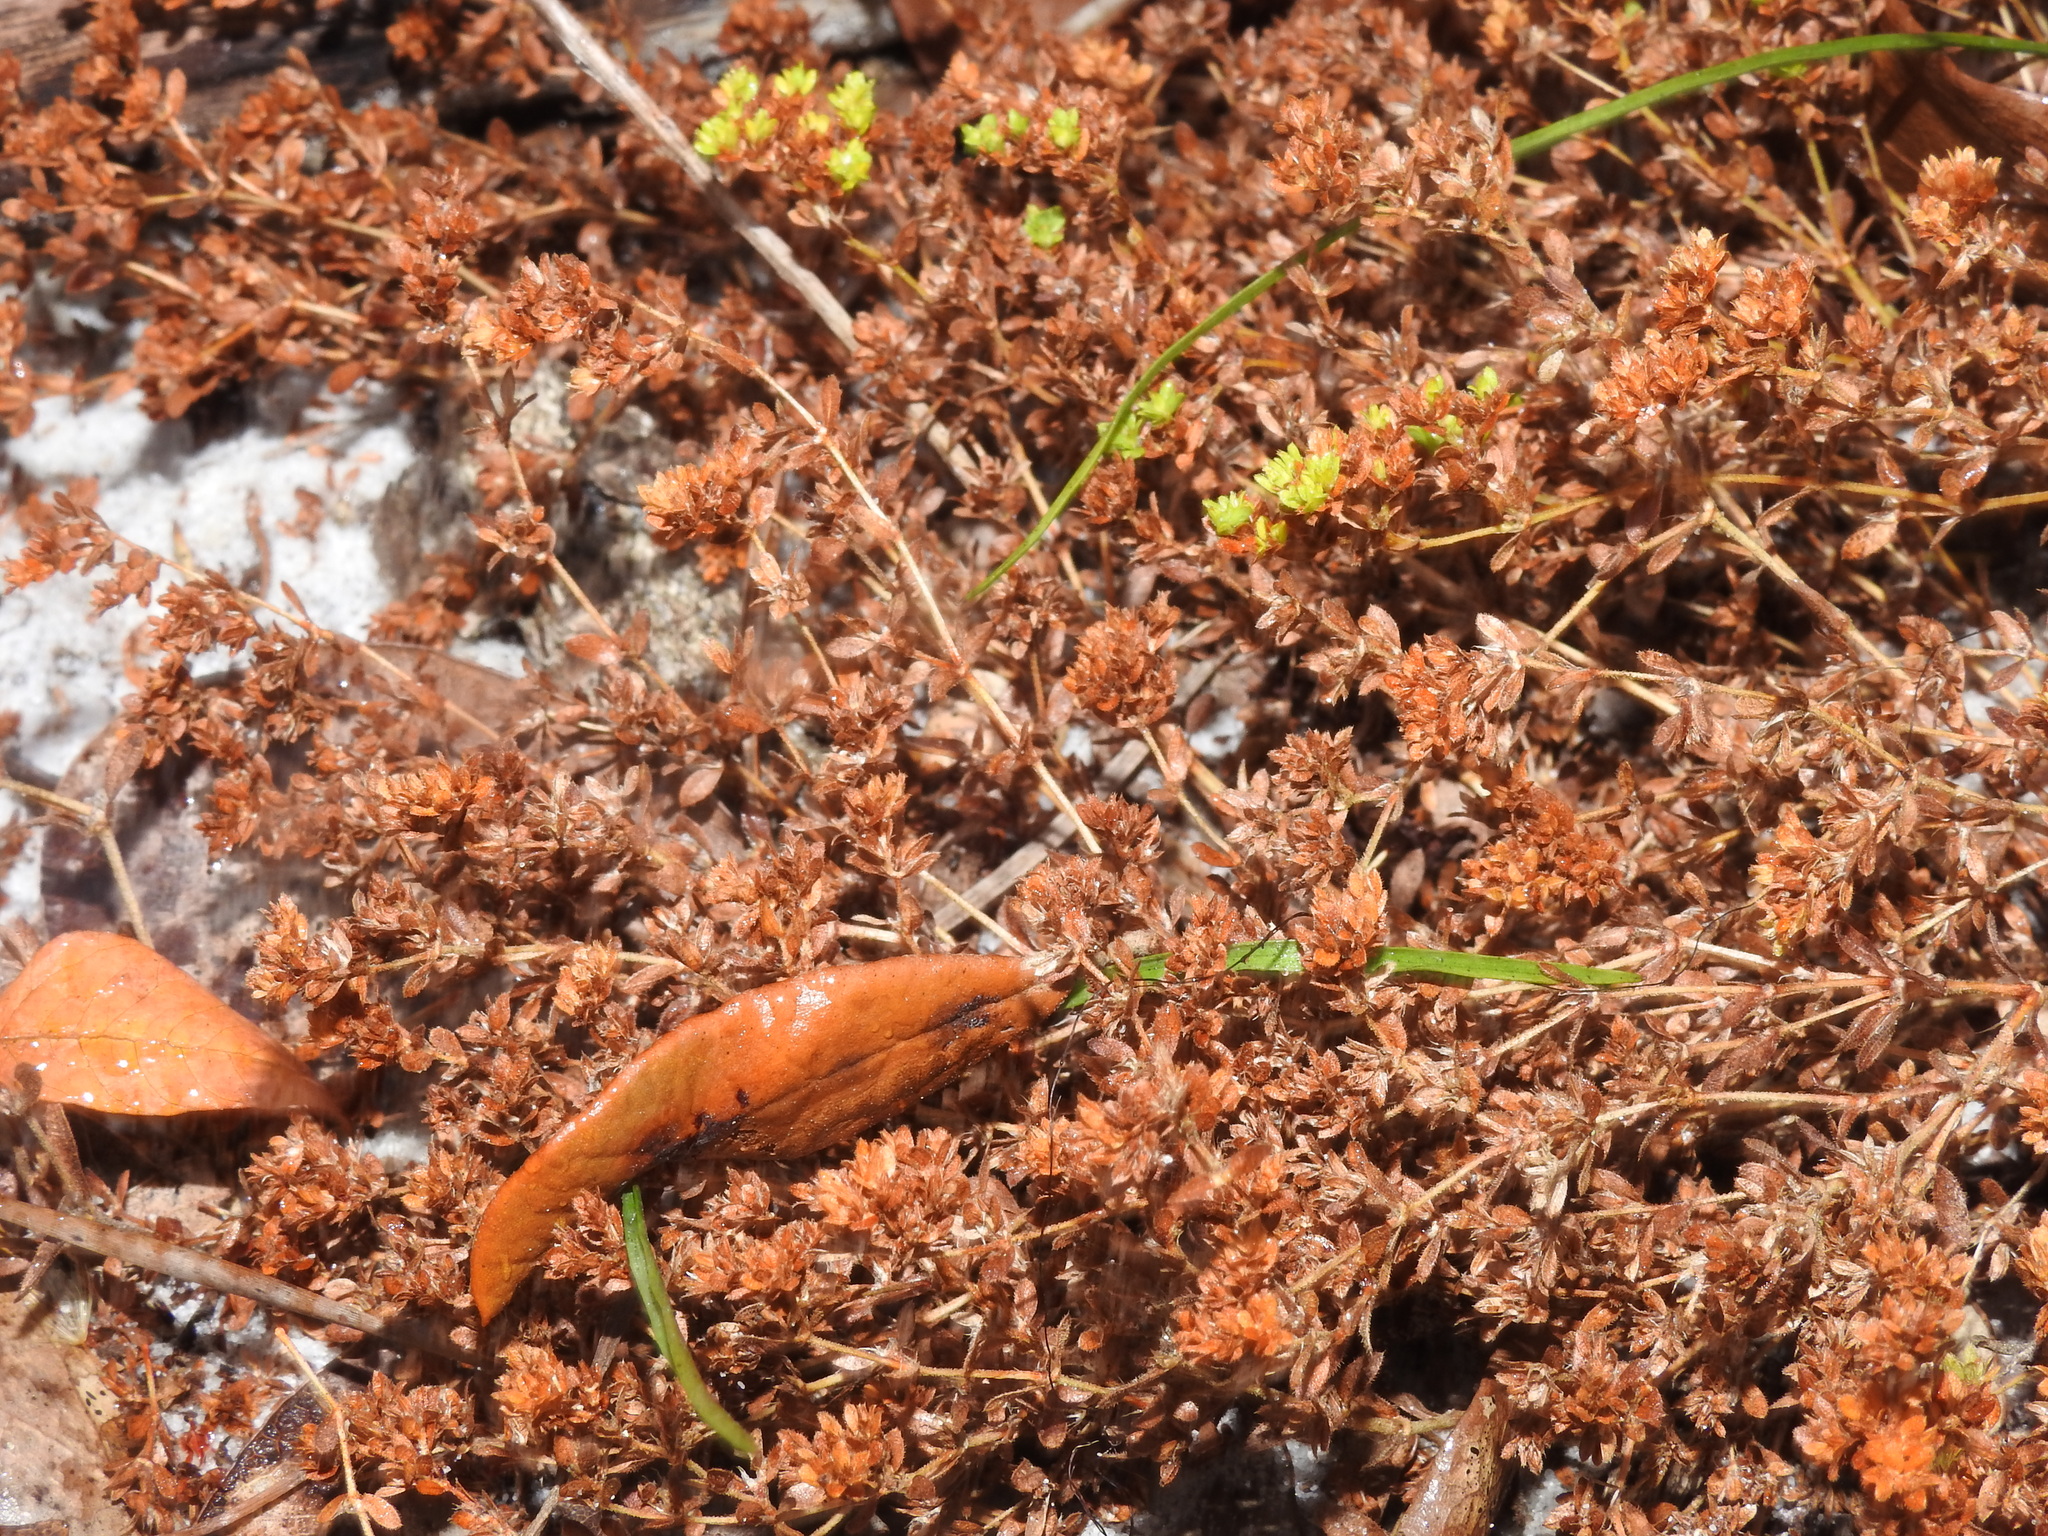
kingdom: Plantae
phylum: Tracheophyta
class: Magnoliopsida
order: Caryophyllales
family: Caryophyllaceae
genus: Paronychia
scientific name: Paronychia herniarioides
